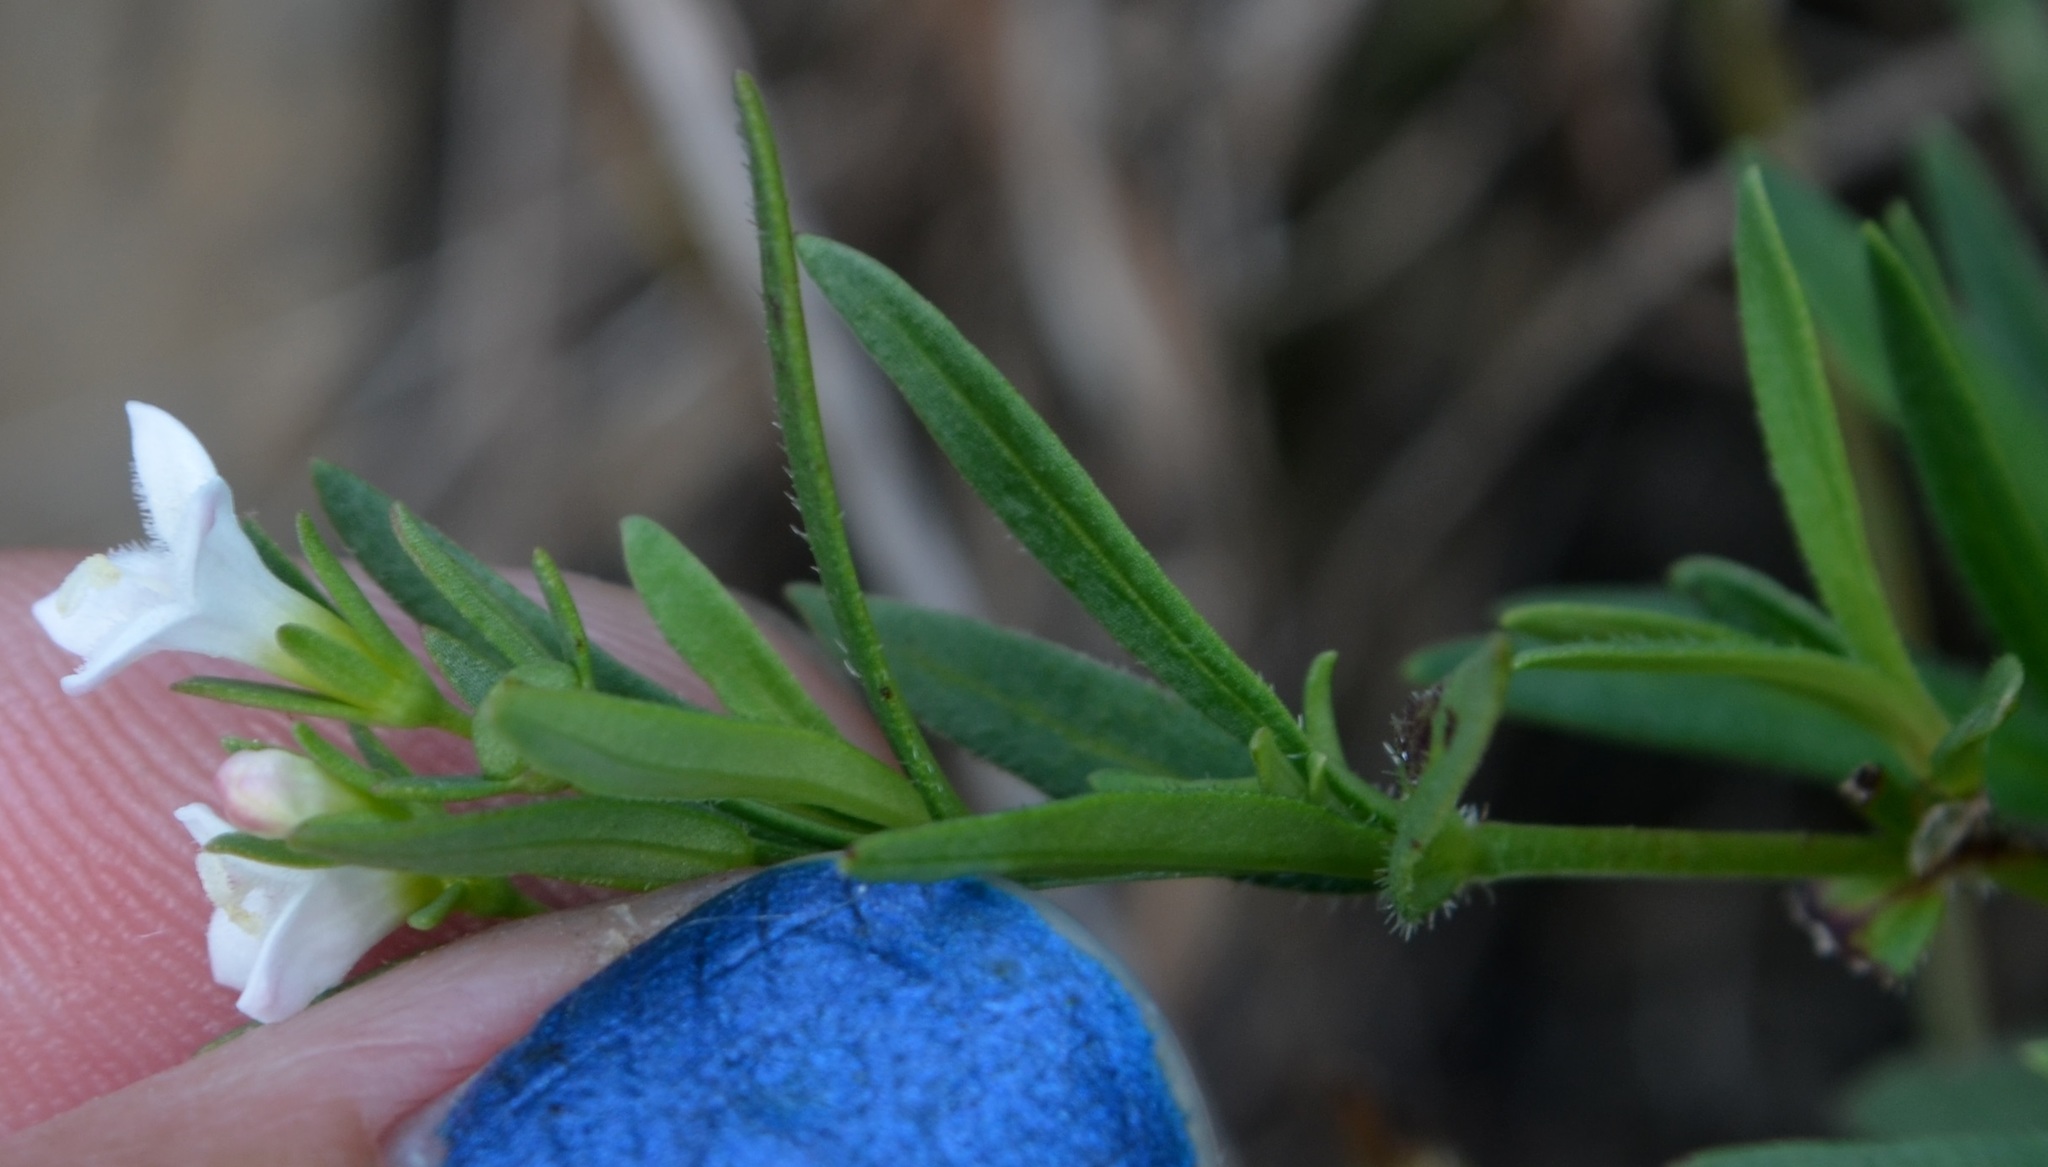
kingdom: Plantae
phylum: Tracheophyta
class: Magnoliopsida
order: Gentianales
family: Rubiaceae
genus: Houstonia
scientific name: Houstonia purpurea
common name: Summer bluet
